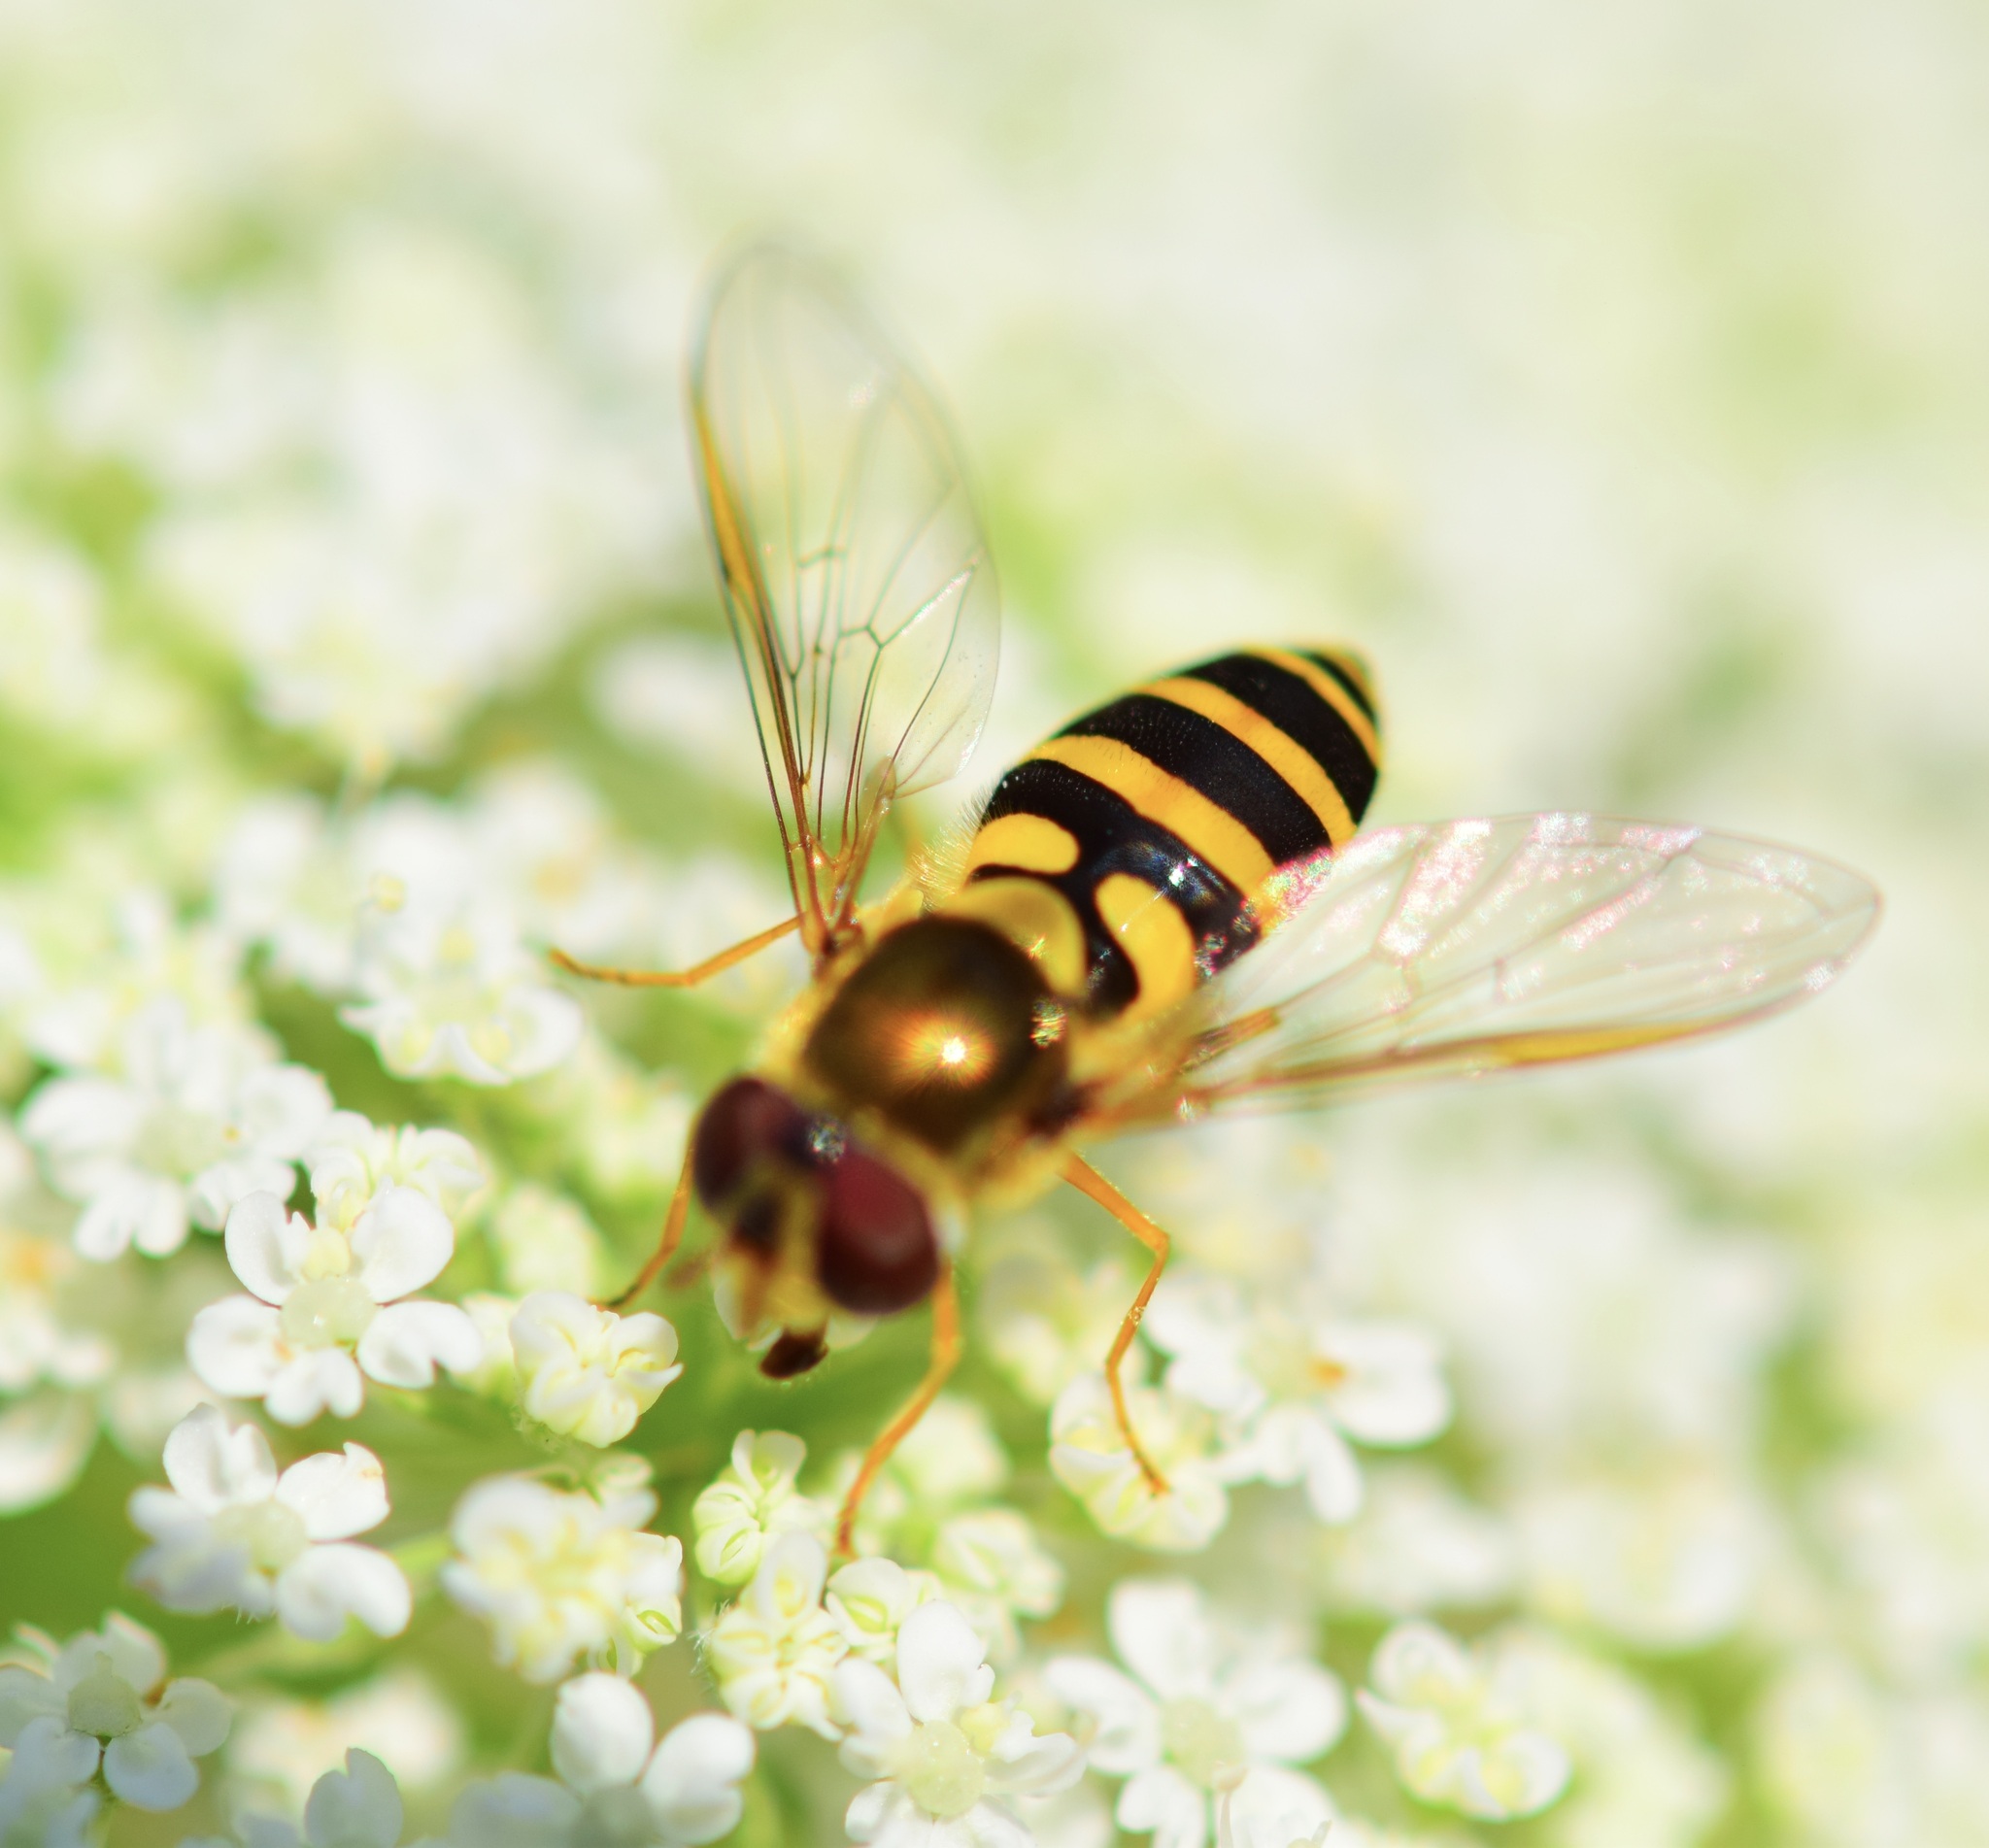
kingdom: Animalia
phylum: Arthropoda
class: Insecta
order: Diptera
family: Syrphidae
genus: Syrphus
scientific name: Syrphus
